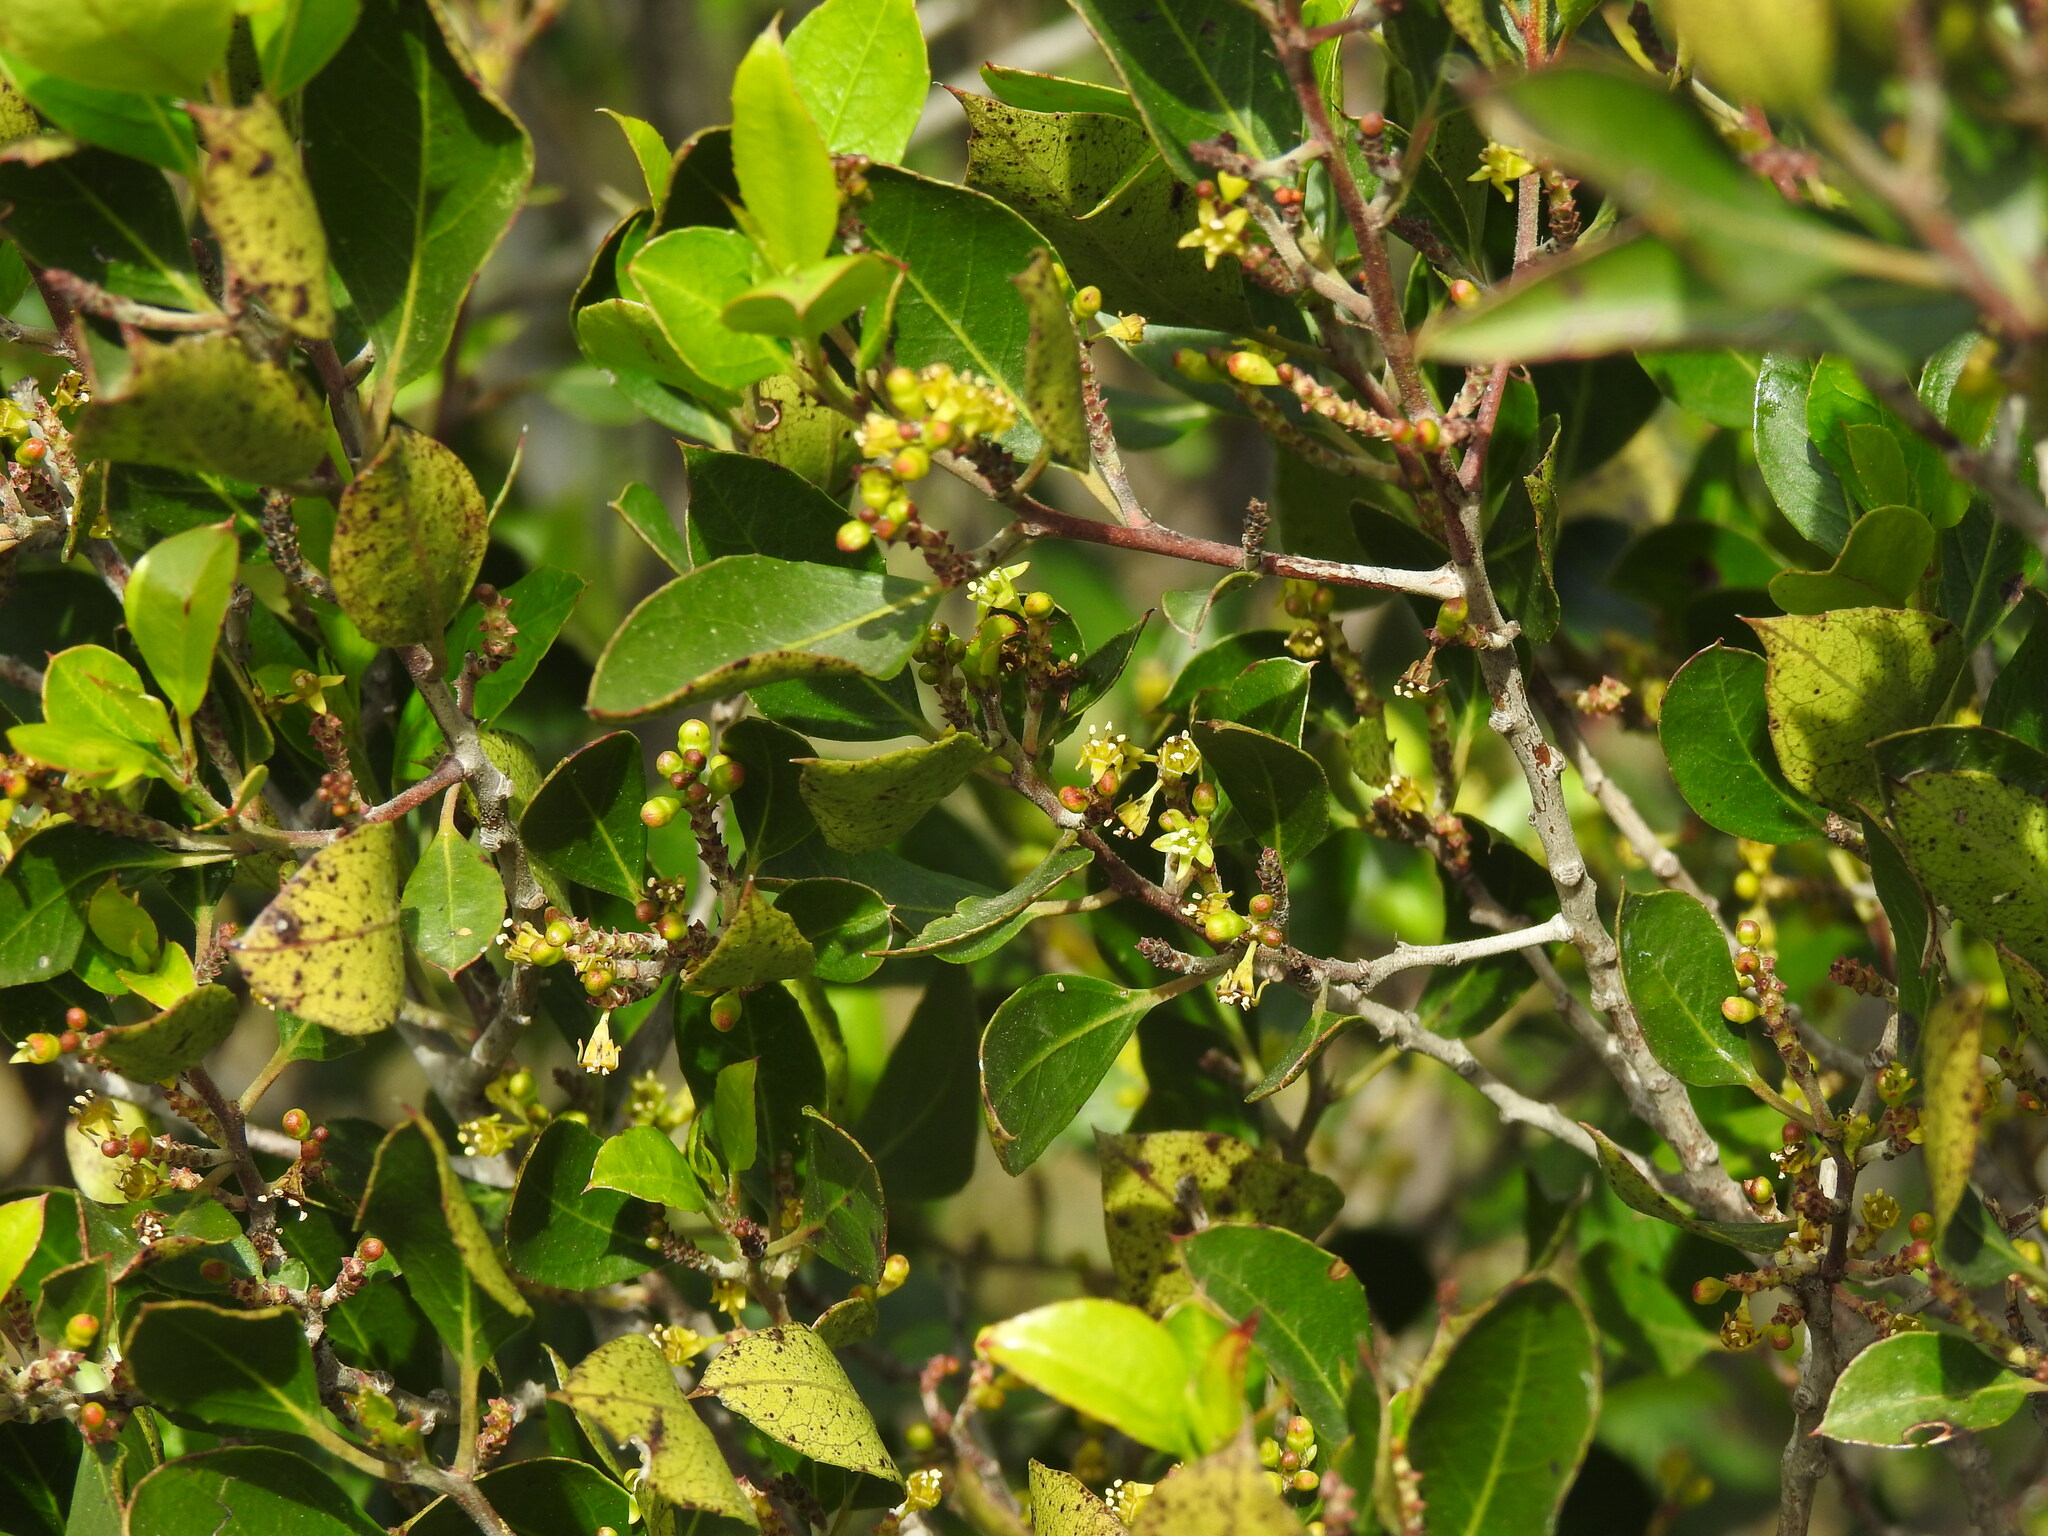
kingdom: Plantae
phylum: Tracheophyta
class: Magnoliopsida
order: Rosales
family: Rhamnaceae
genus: Rhamnus
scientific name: Rhamnus alaternus
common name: Mediterranean buckthorn
